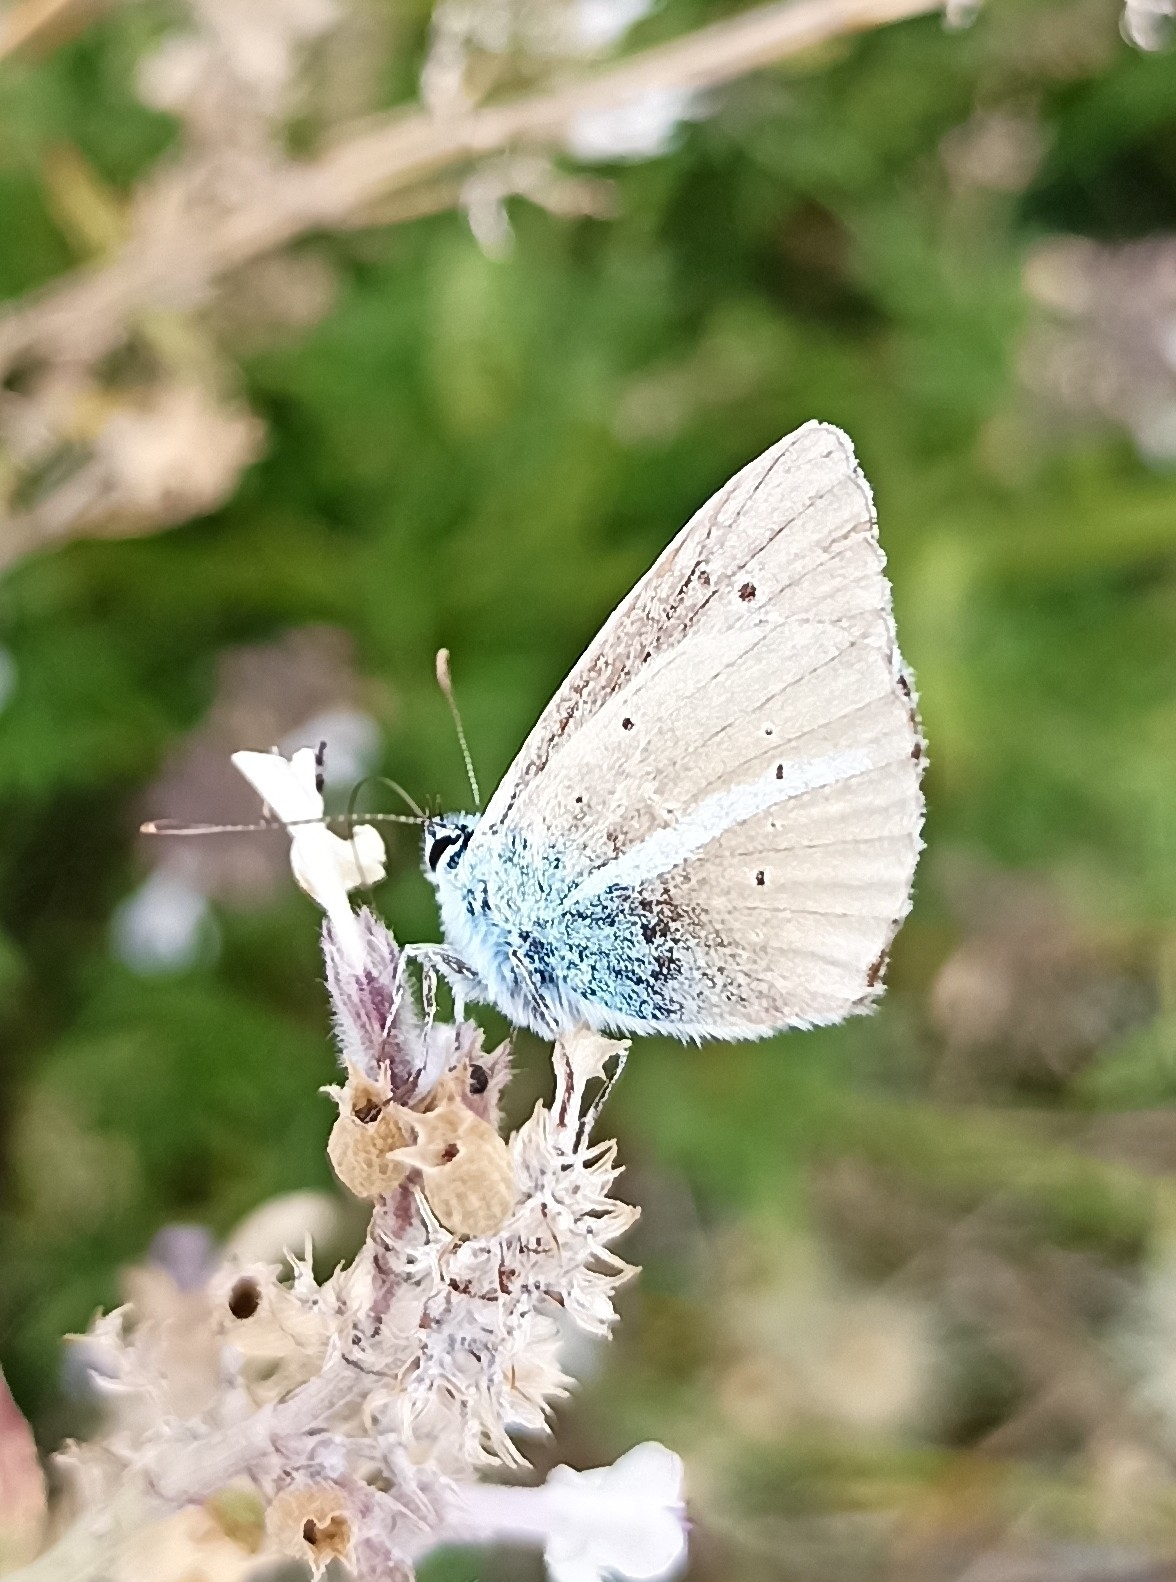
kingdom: Animalia
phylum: Arthropoda
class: Insecta
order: Lepidoptera
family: Lycaenidae
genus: Agrodiaetus
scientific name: Agrodiaetus damon
